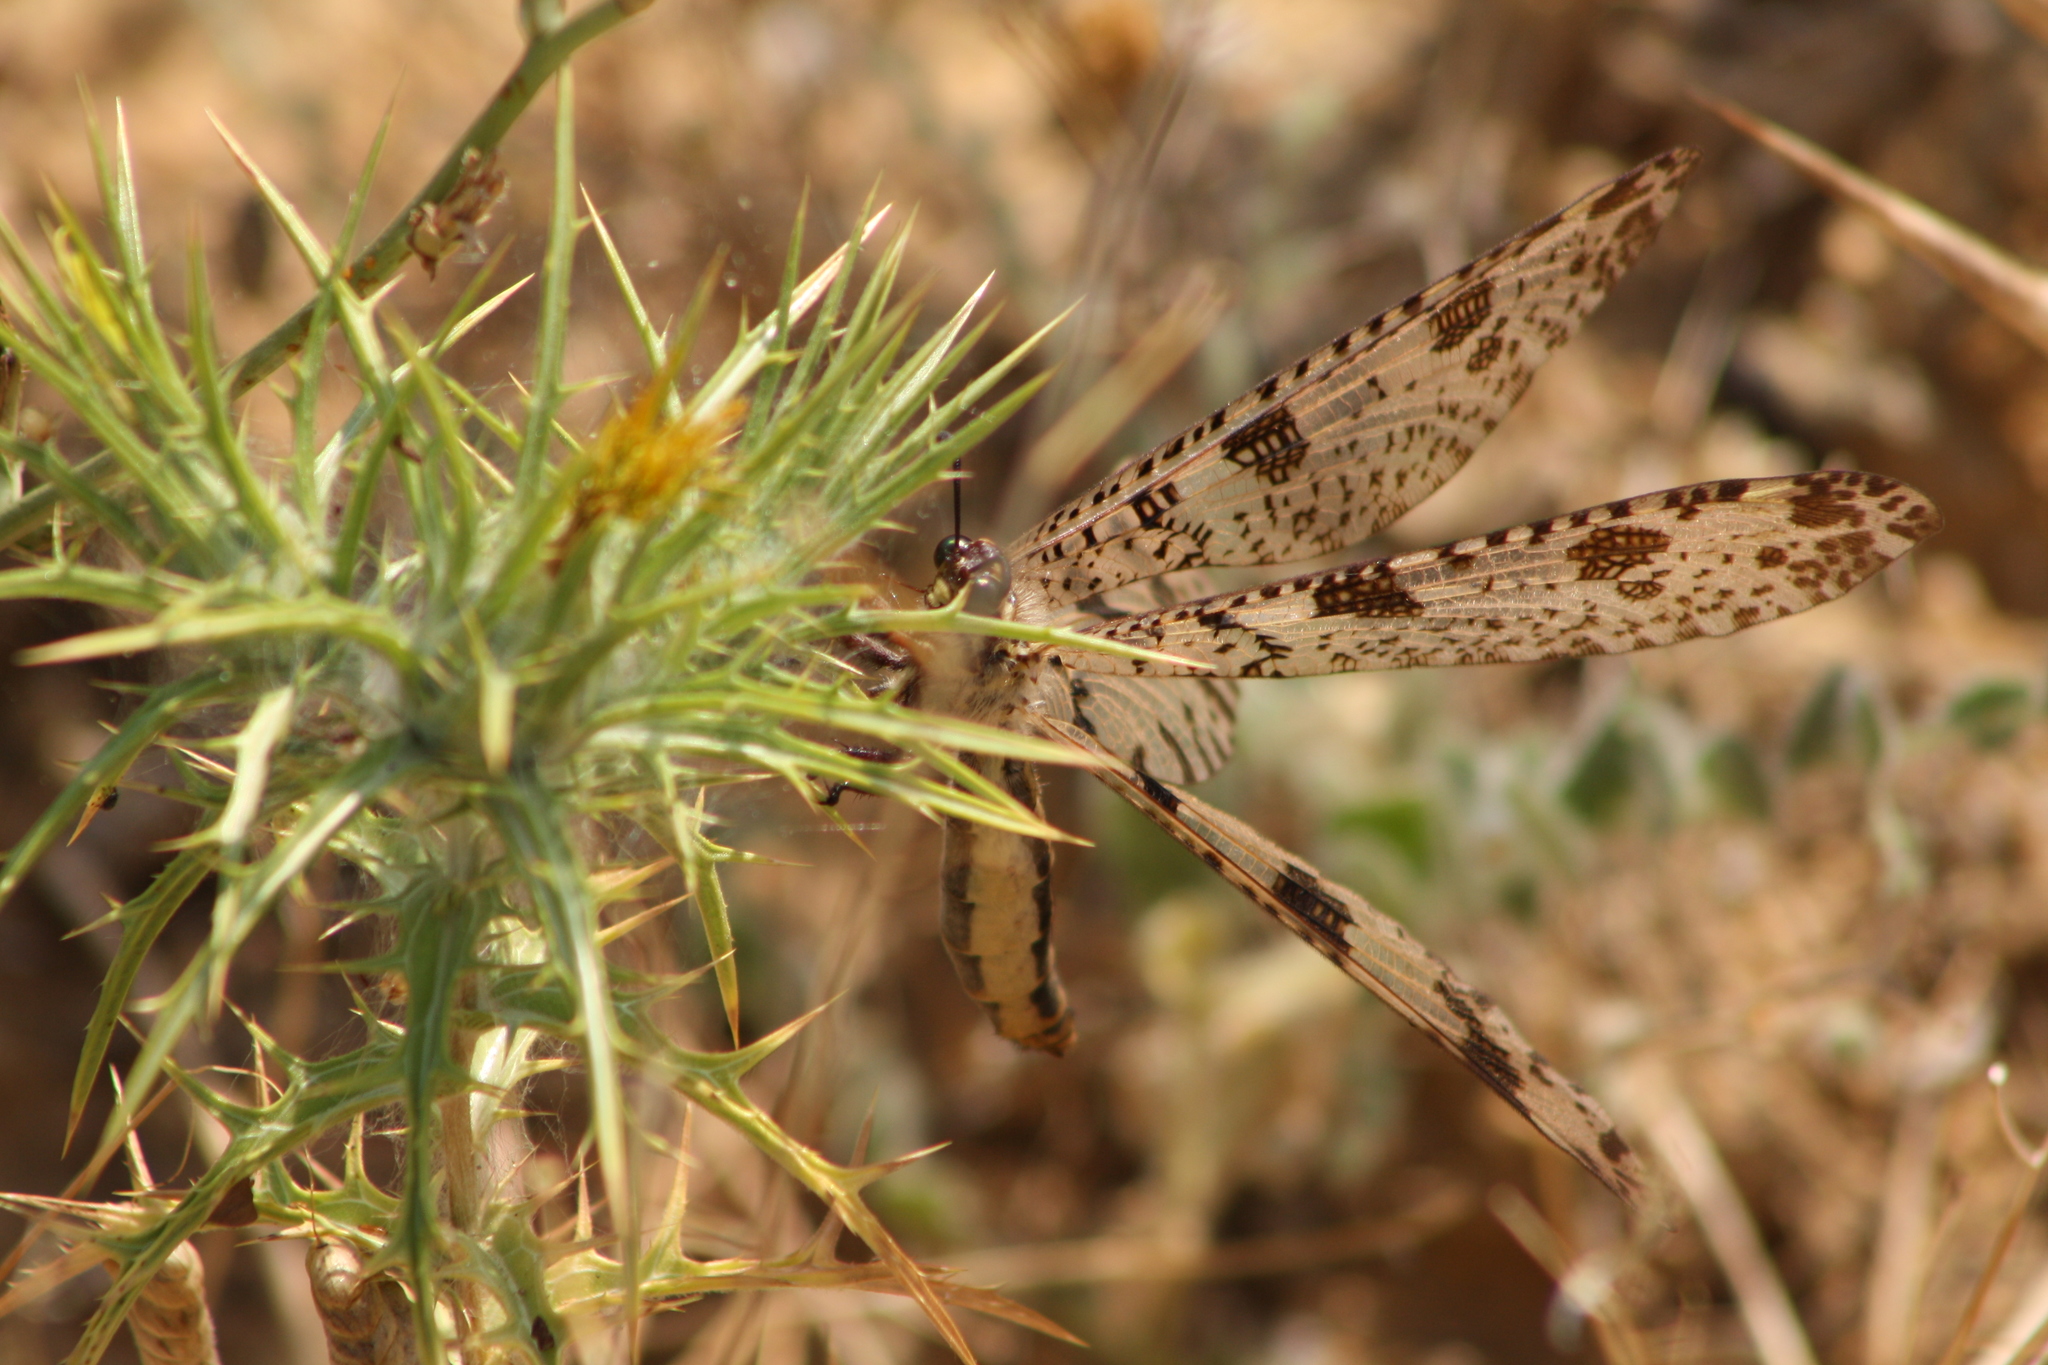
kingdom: Animalia
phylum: Arthropoda
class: Insecta
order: Neuroptera
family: Myrmeleontidae
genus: Palpares
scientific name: Palpares libelluloides
